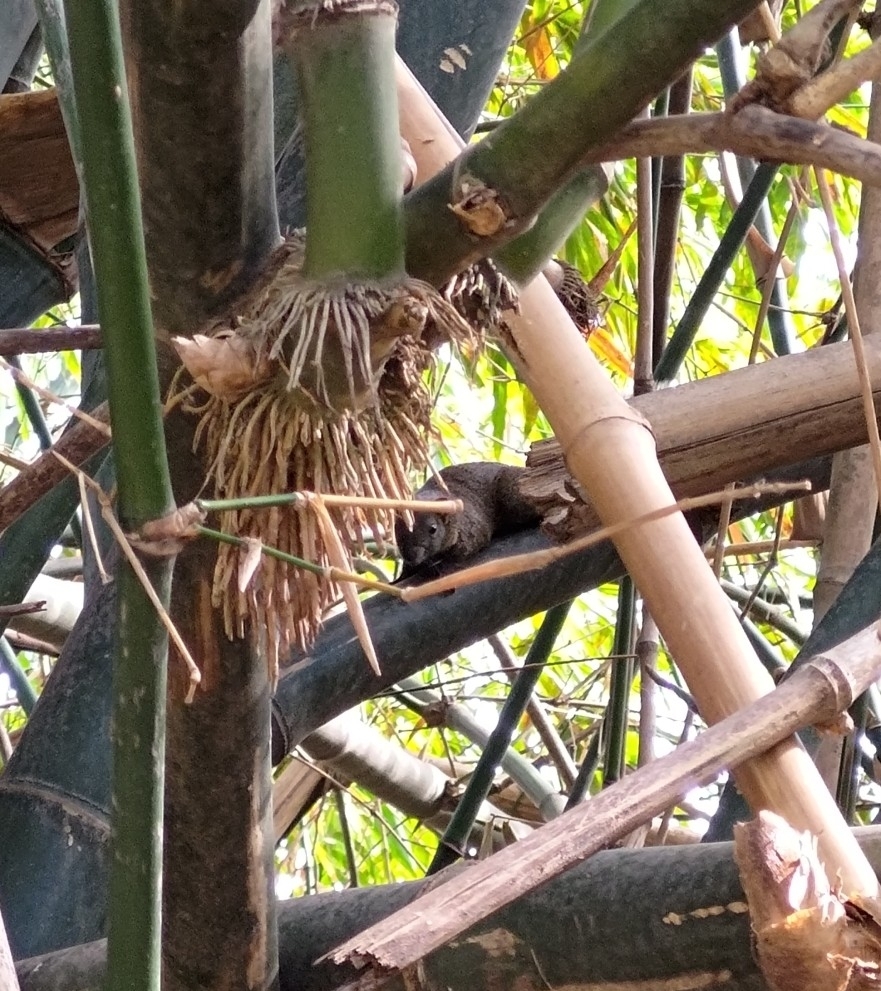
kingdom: Animalia
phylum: Chordata
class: Mammalia
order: Rodentia
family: Sciuridae
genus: Callosciurus
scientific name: Callosciurus erythraeus
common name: Pallas's squirrel
